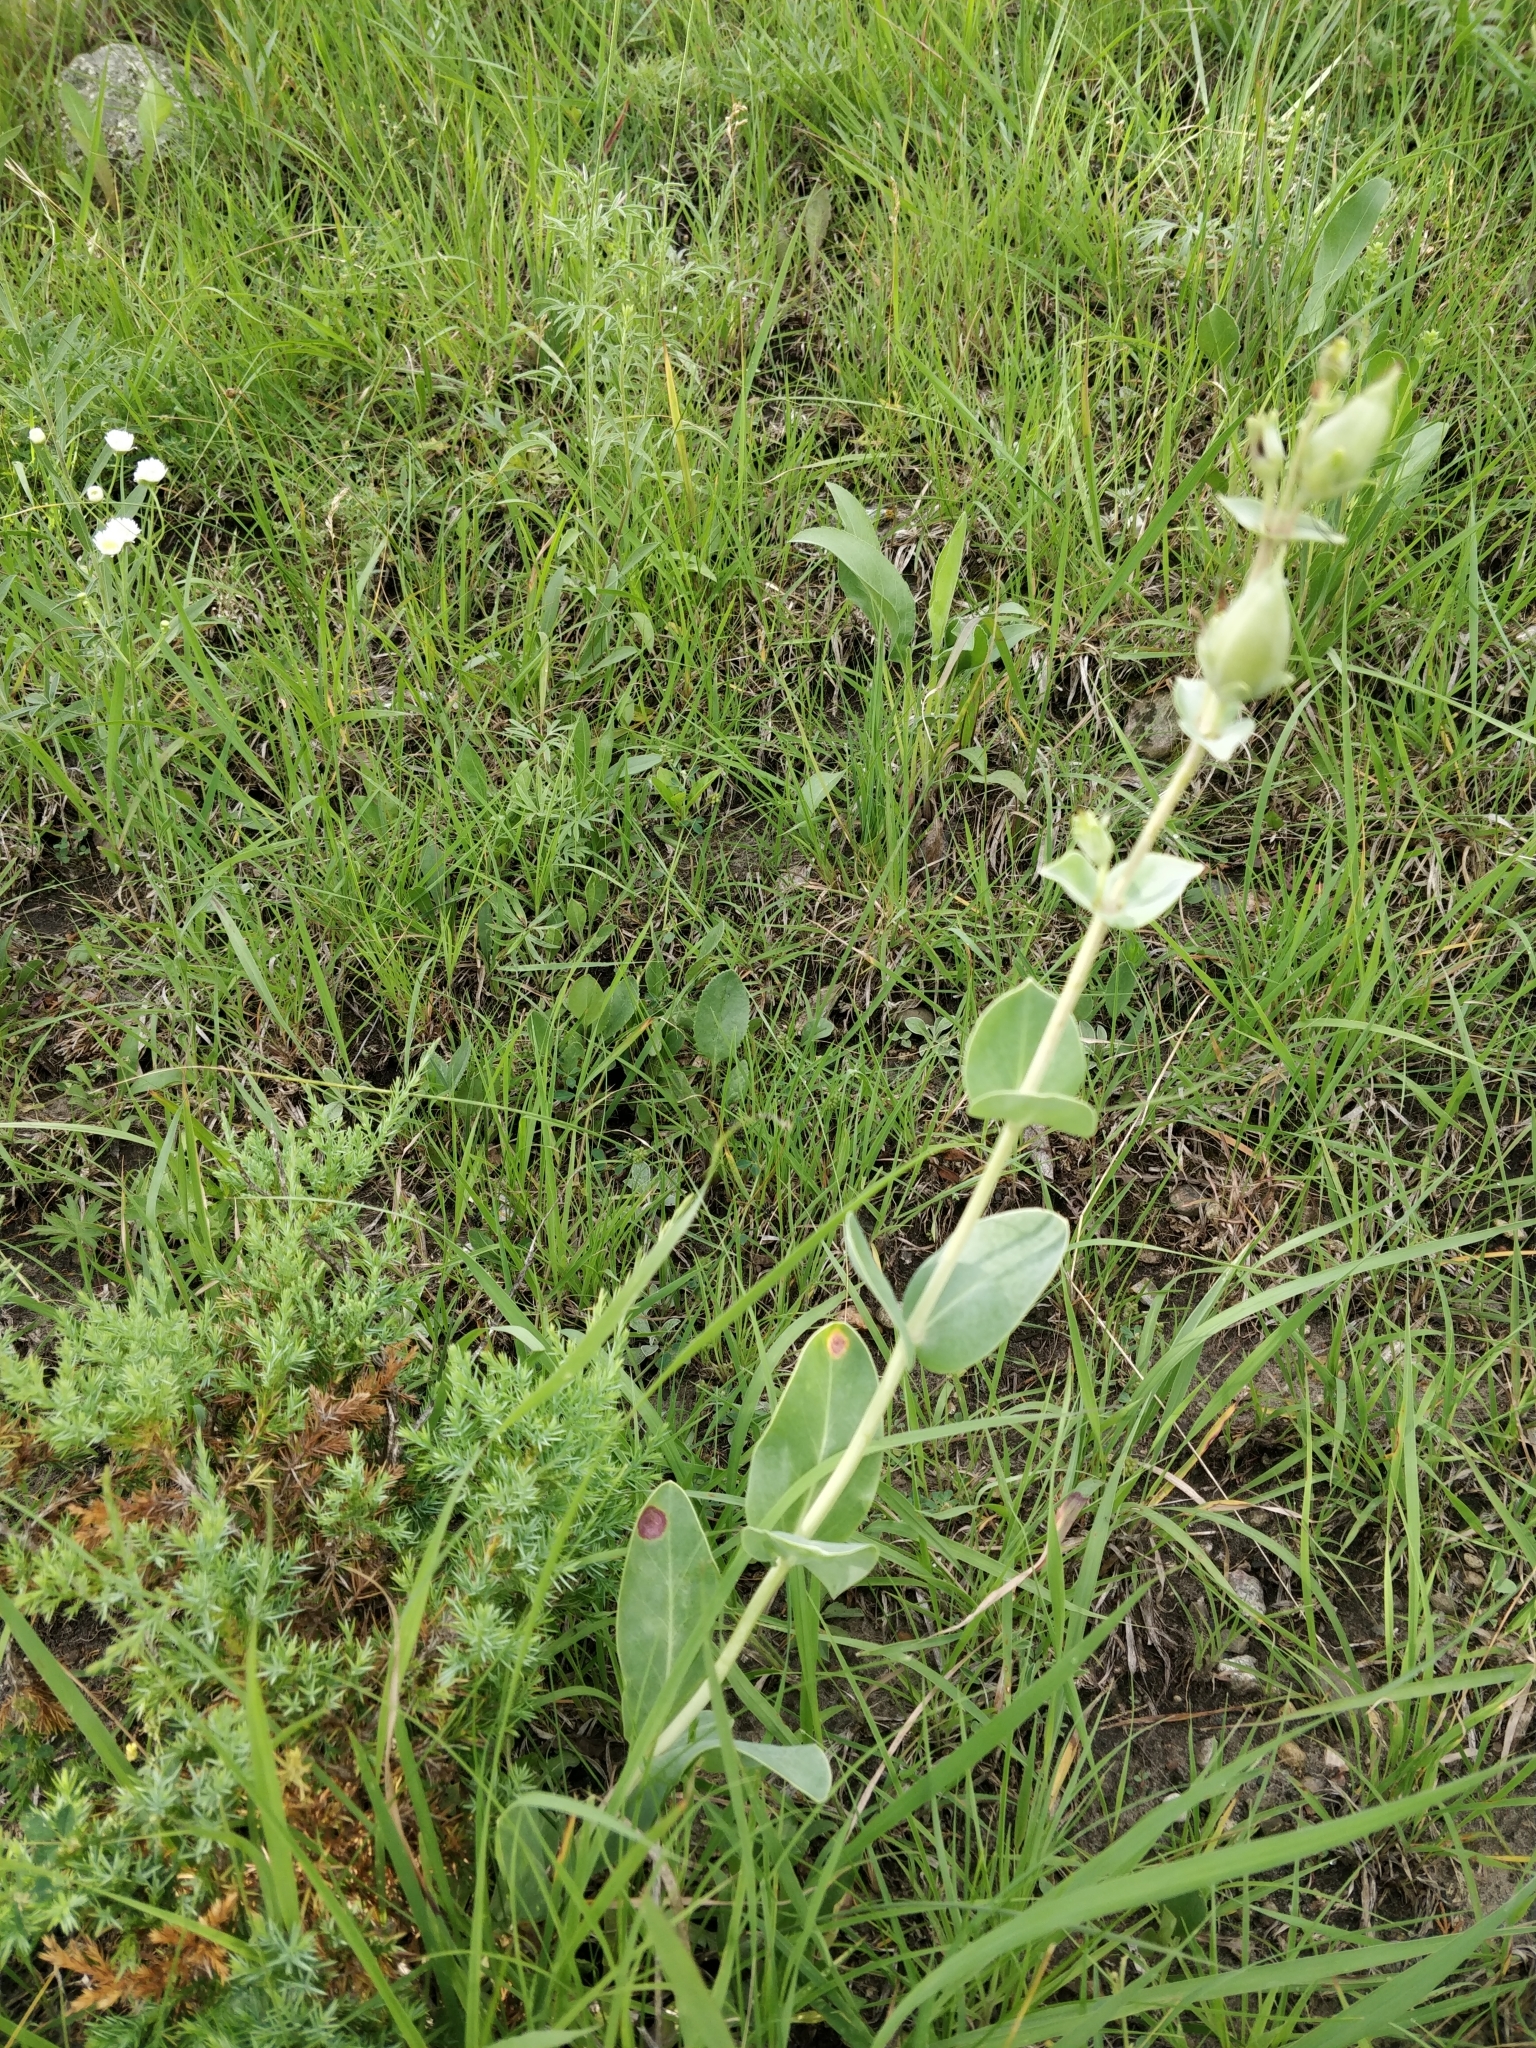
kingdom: Plantae
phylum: Tracheophyta
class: Magnoliopsida
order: Lamiales
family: Plantaginaceae
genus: Penstemon
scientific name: Penstemon
